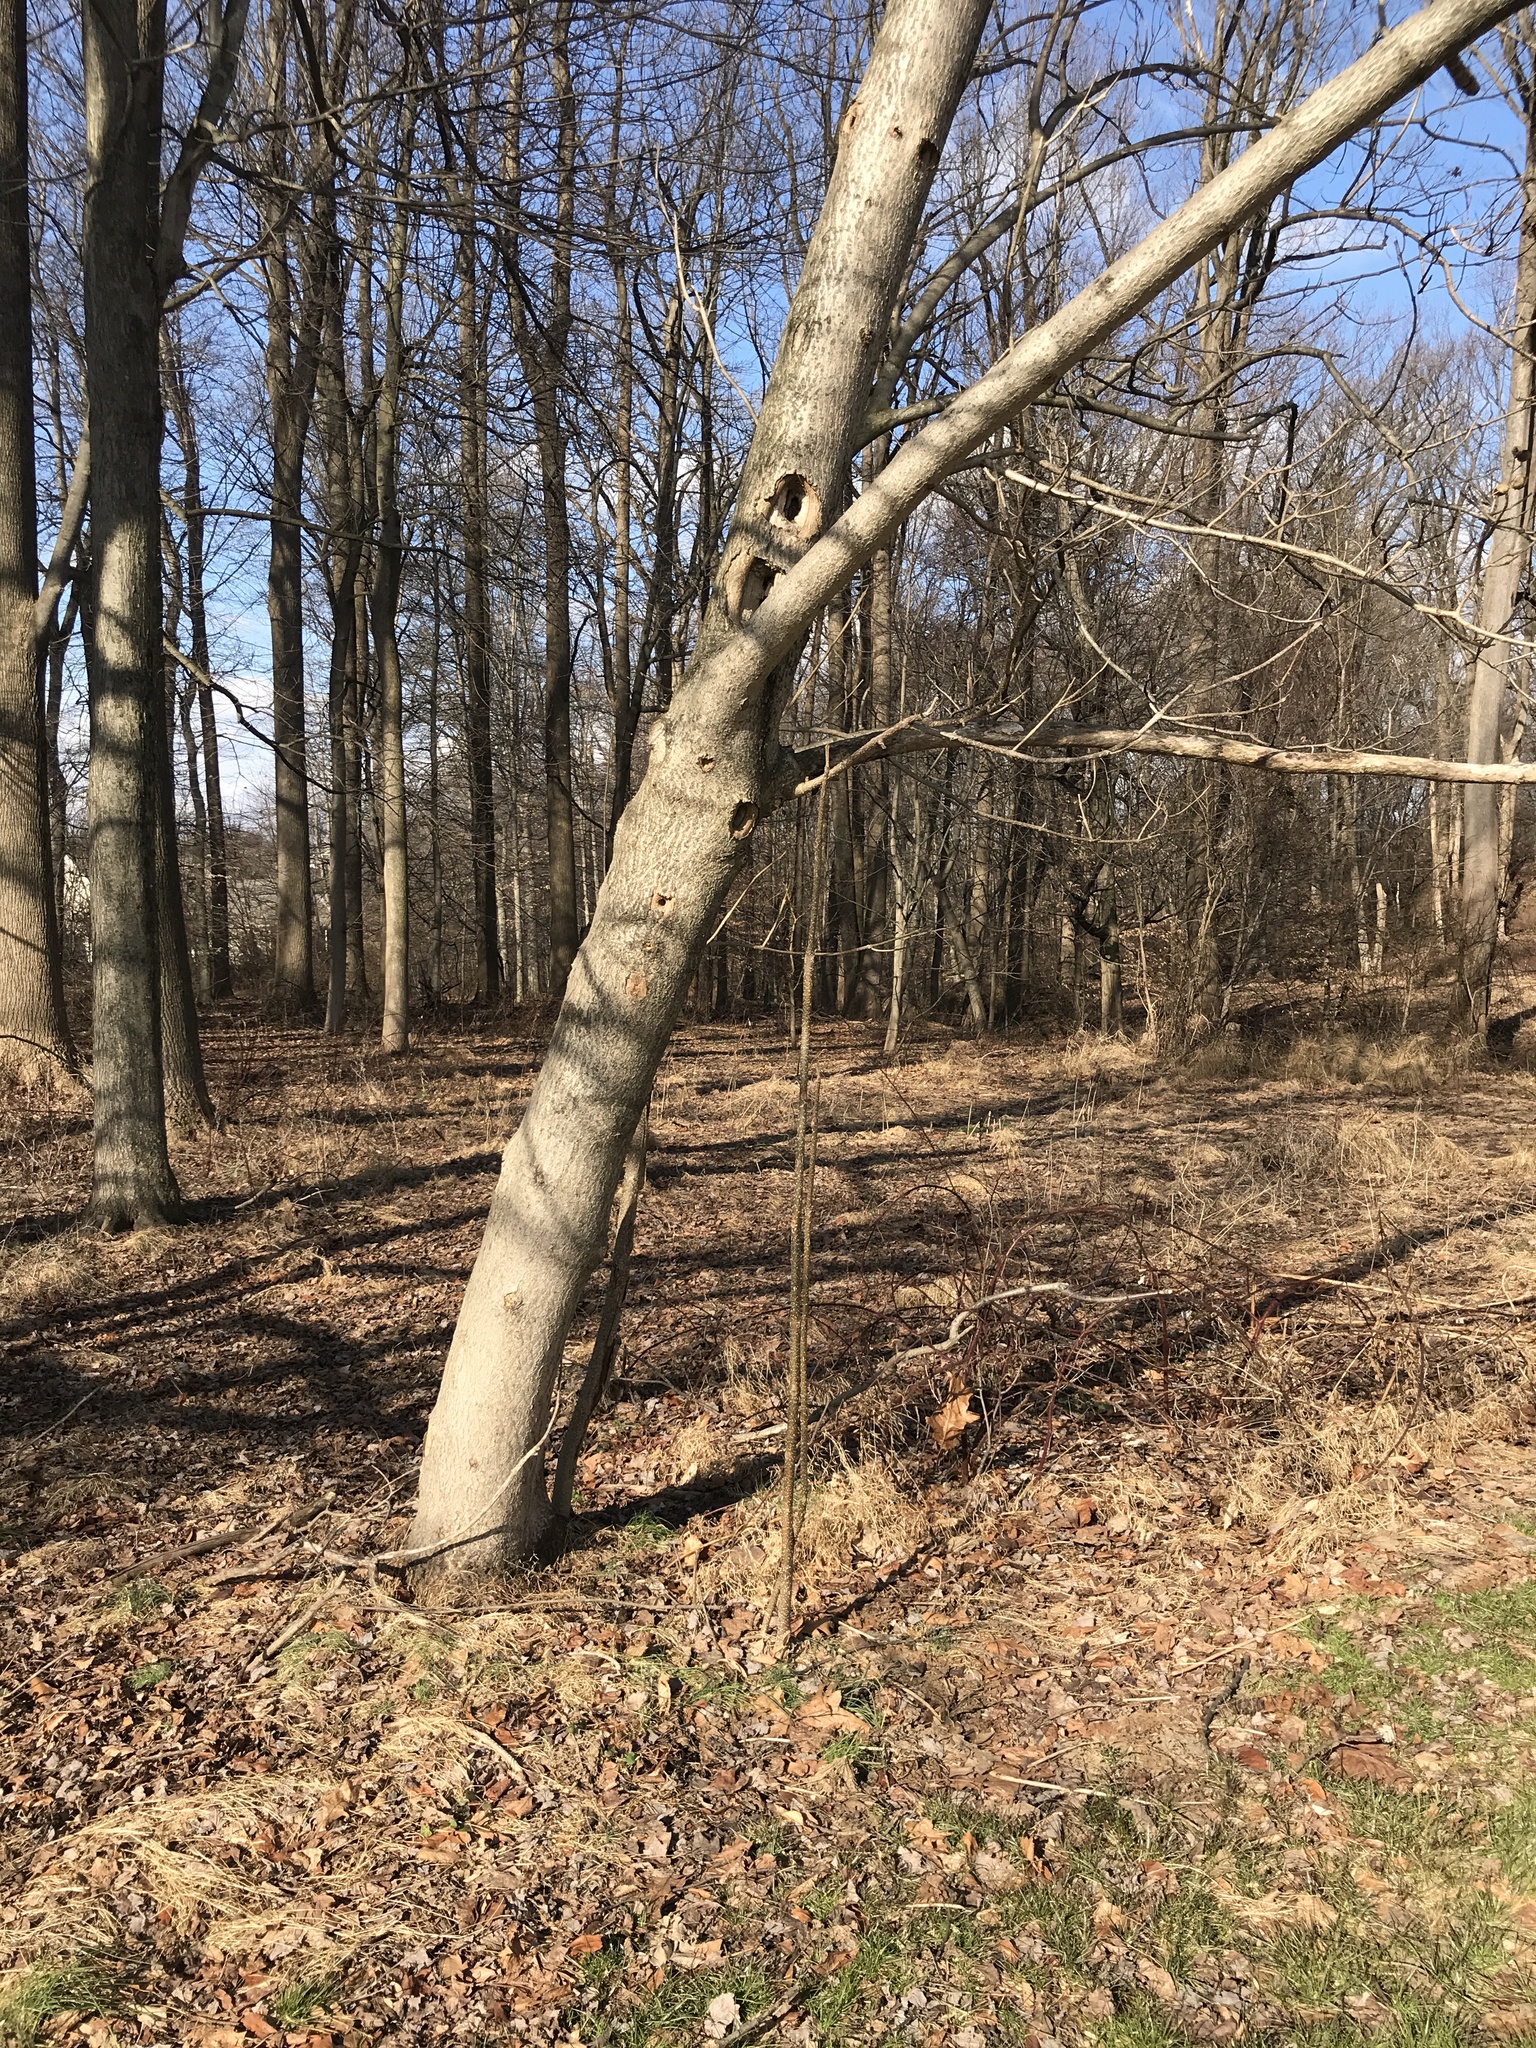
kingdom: Plantae
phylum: Tracheophyta
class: Magnoliopsida
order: Lamiales
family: Paulowniaceae
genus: Paulownia
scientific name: Paulownia tomentosa
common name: Foxglove-tree
